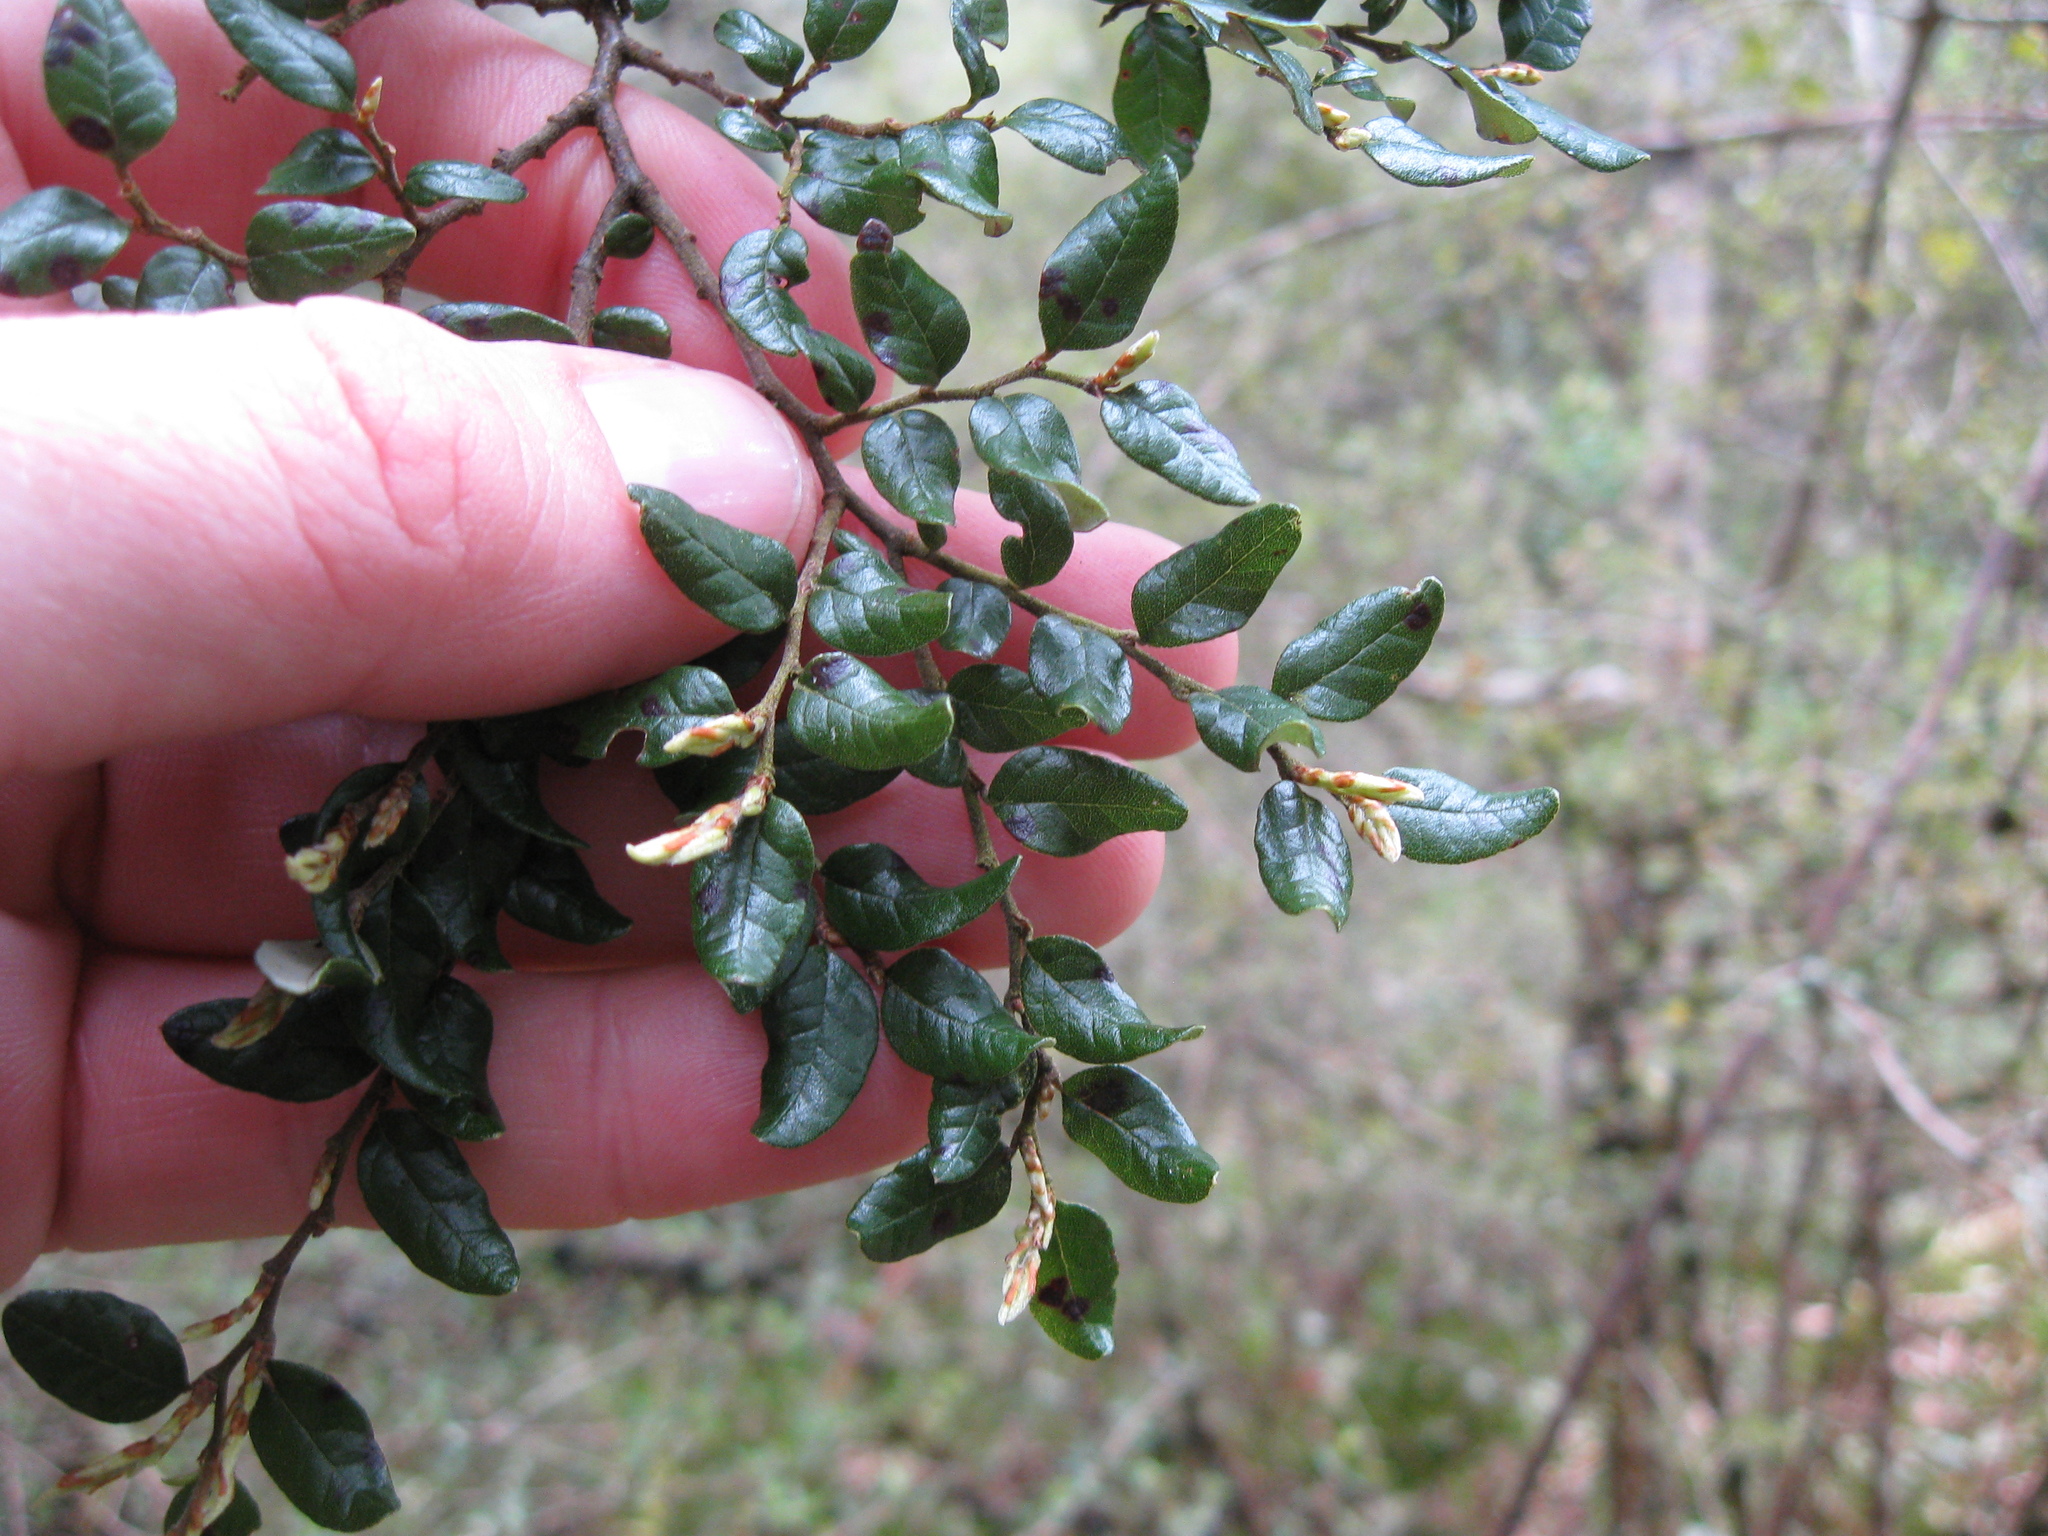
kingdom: Plantae
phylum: Tracheophyta
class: Magnoliopsida
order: Fagales
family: Nothofagaceae
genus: Nothofagus
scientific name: Nothofagus cliffortioides
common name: Mountain beech
